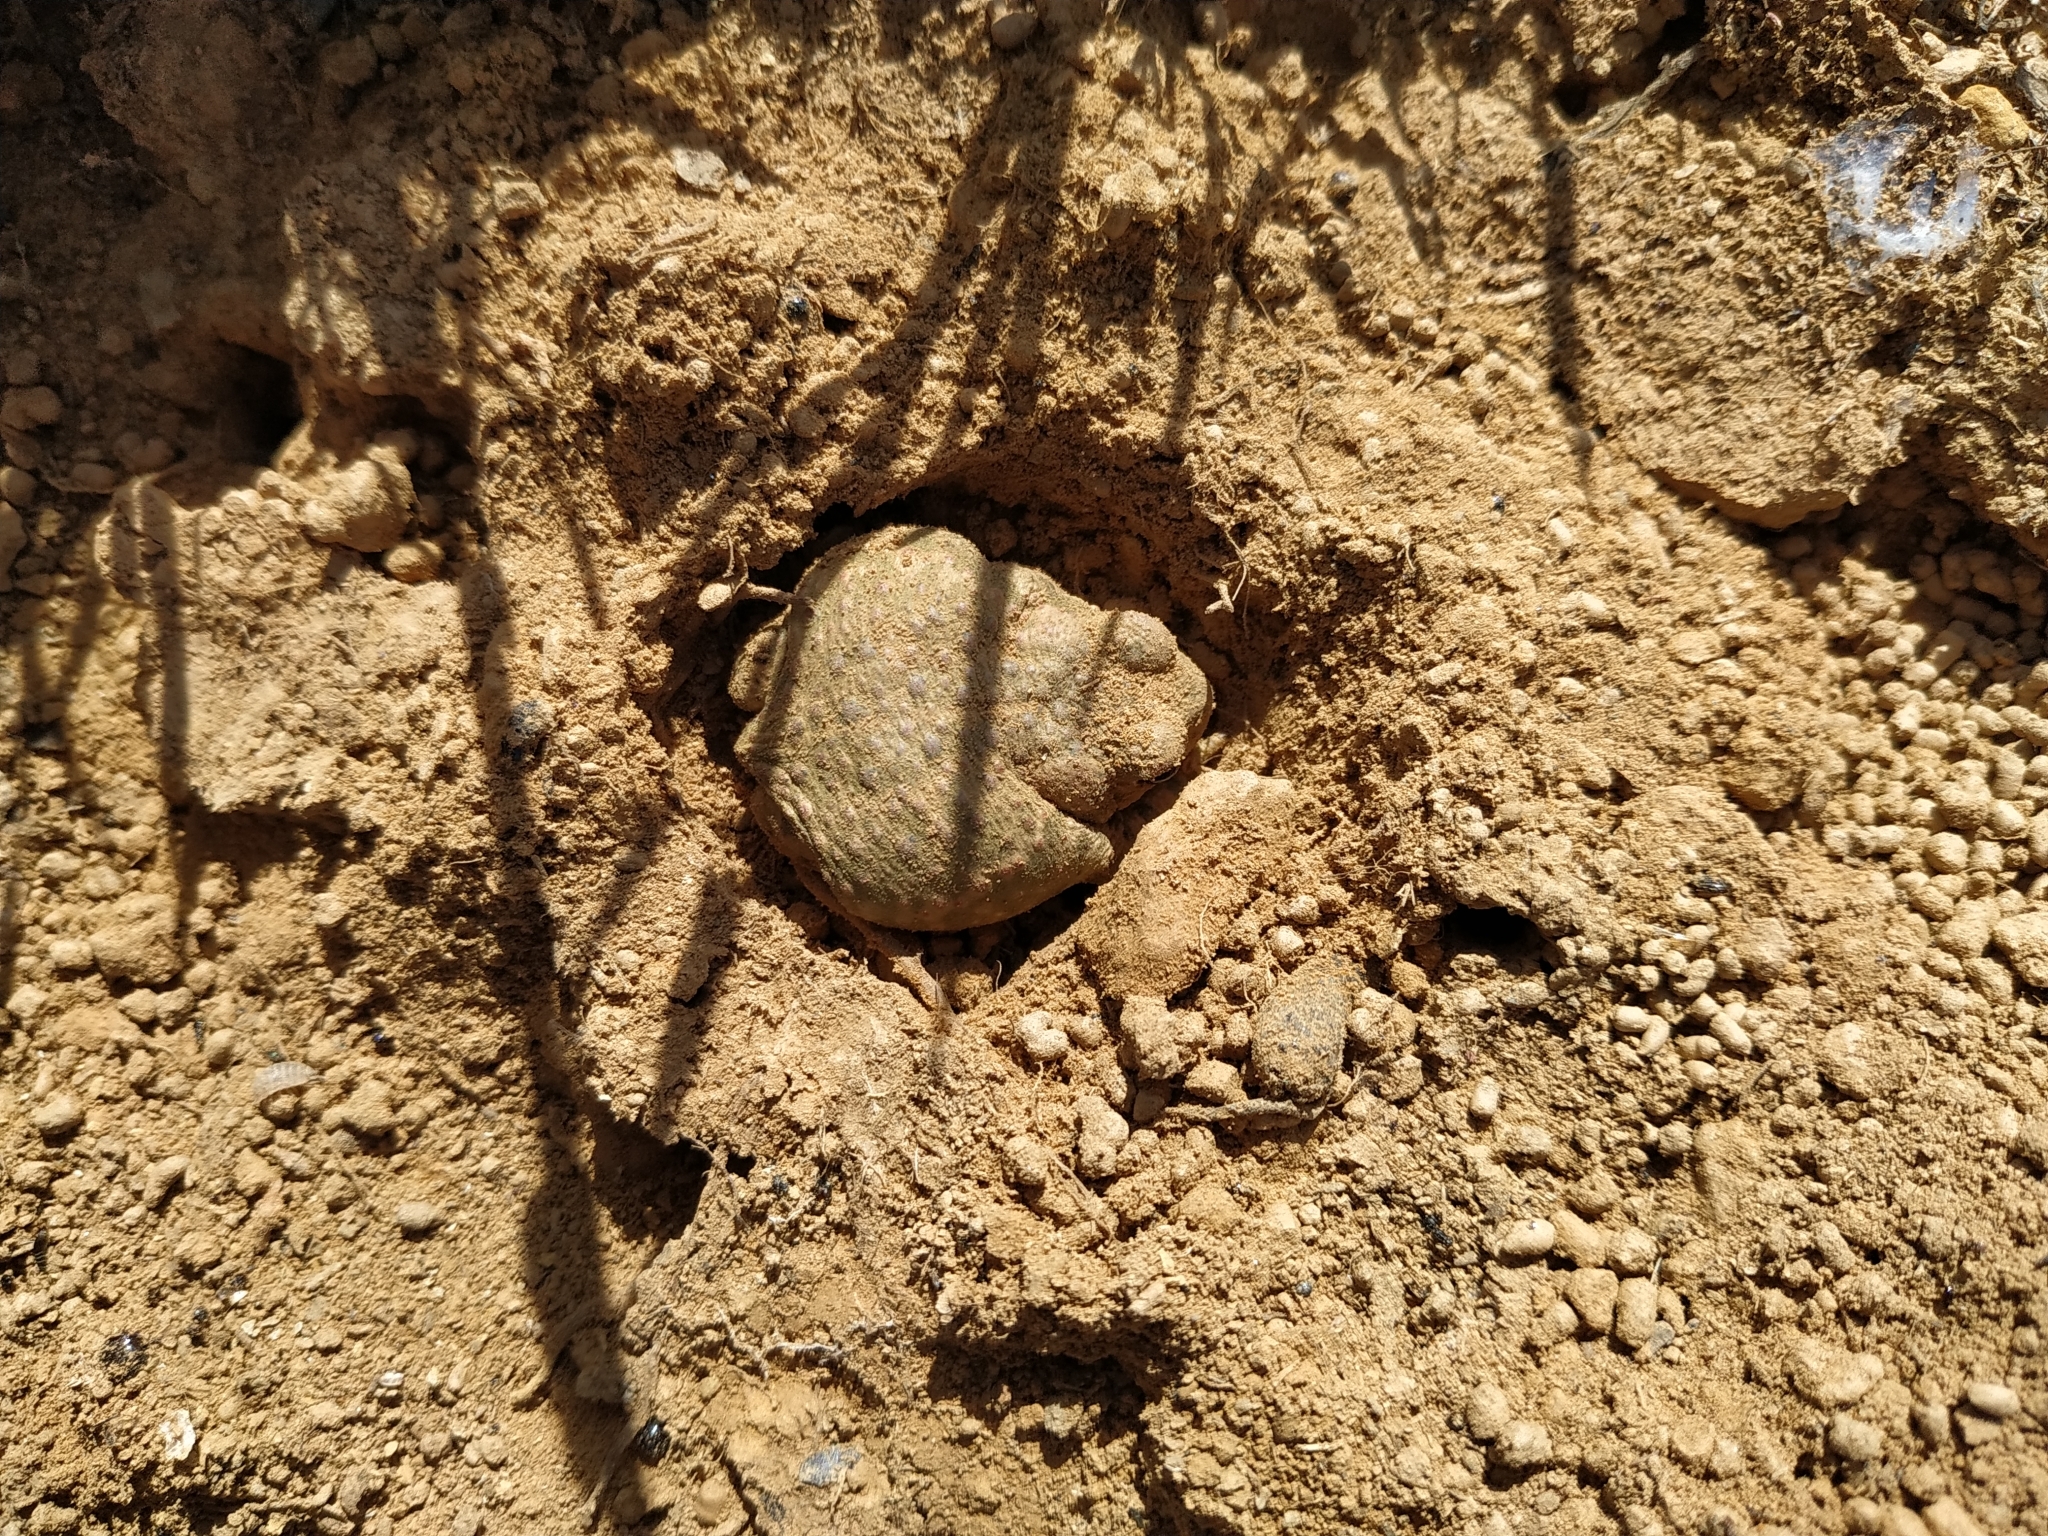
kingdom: Animalia
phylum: Chordata
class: Amphibia
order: Anura
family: Bufonidae
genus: Epidalea
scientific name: Epidalea calamita
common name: Natterjack toad
